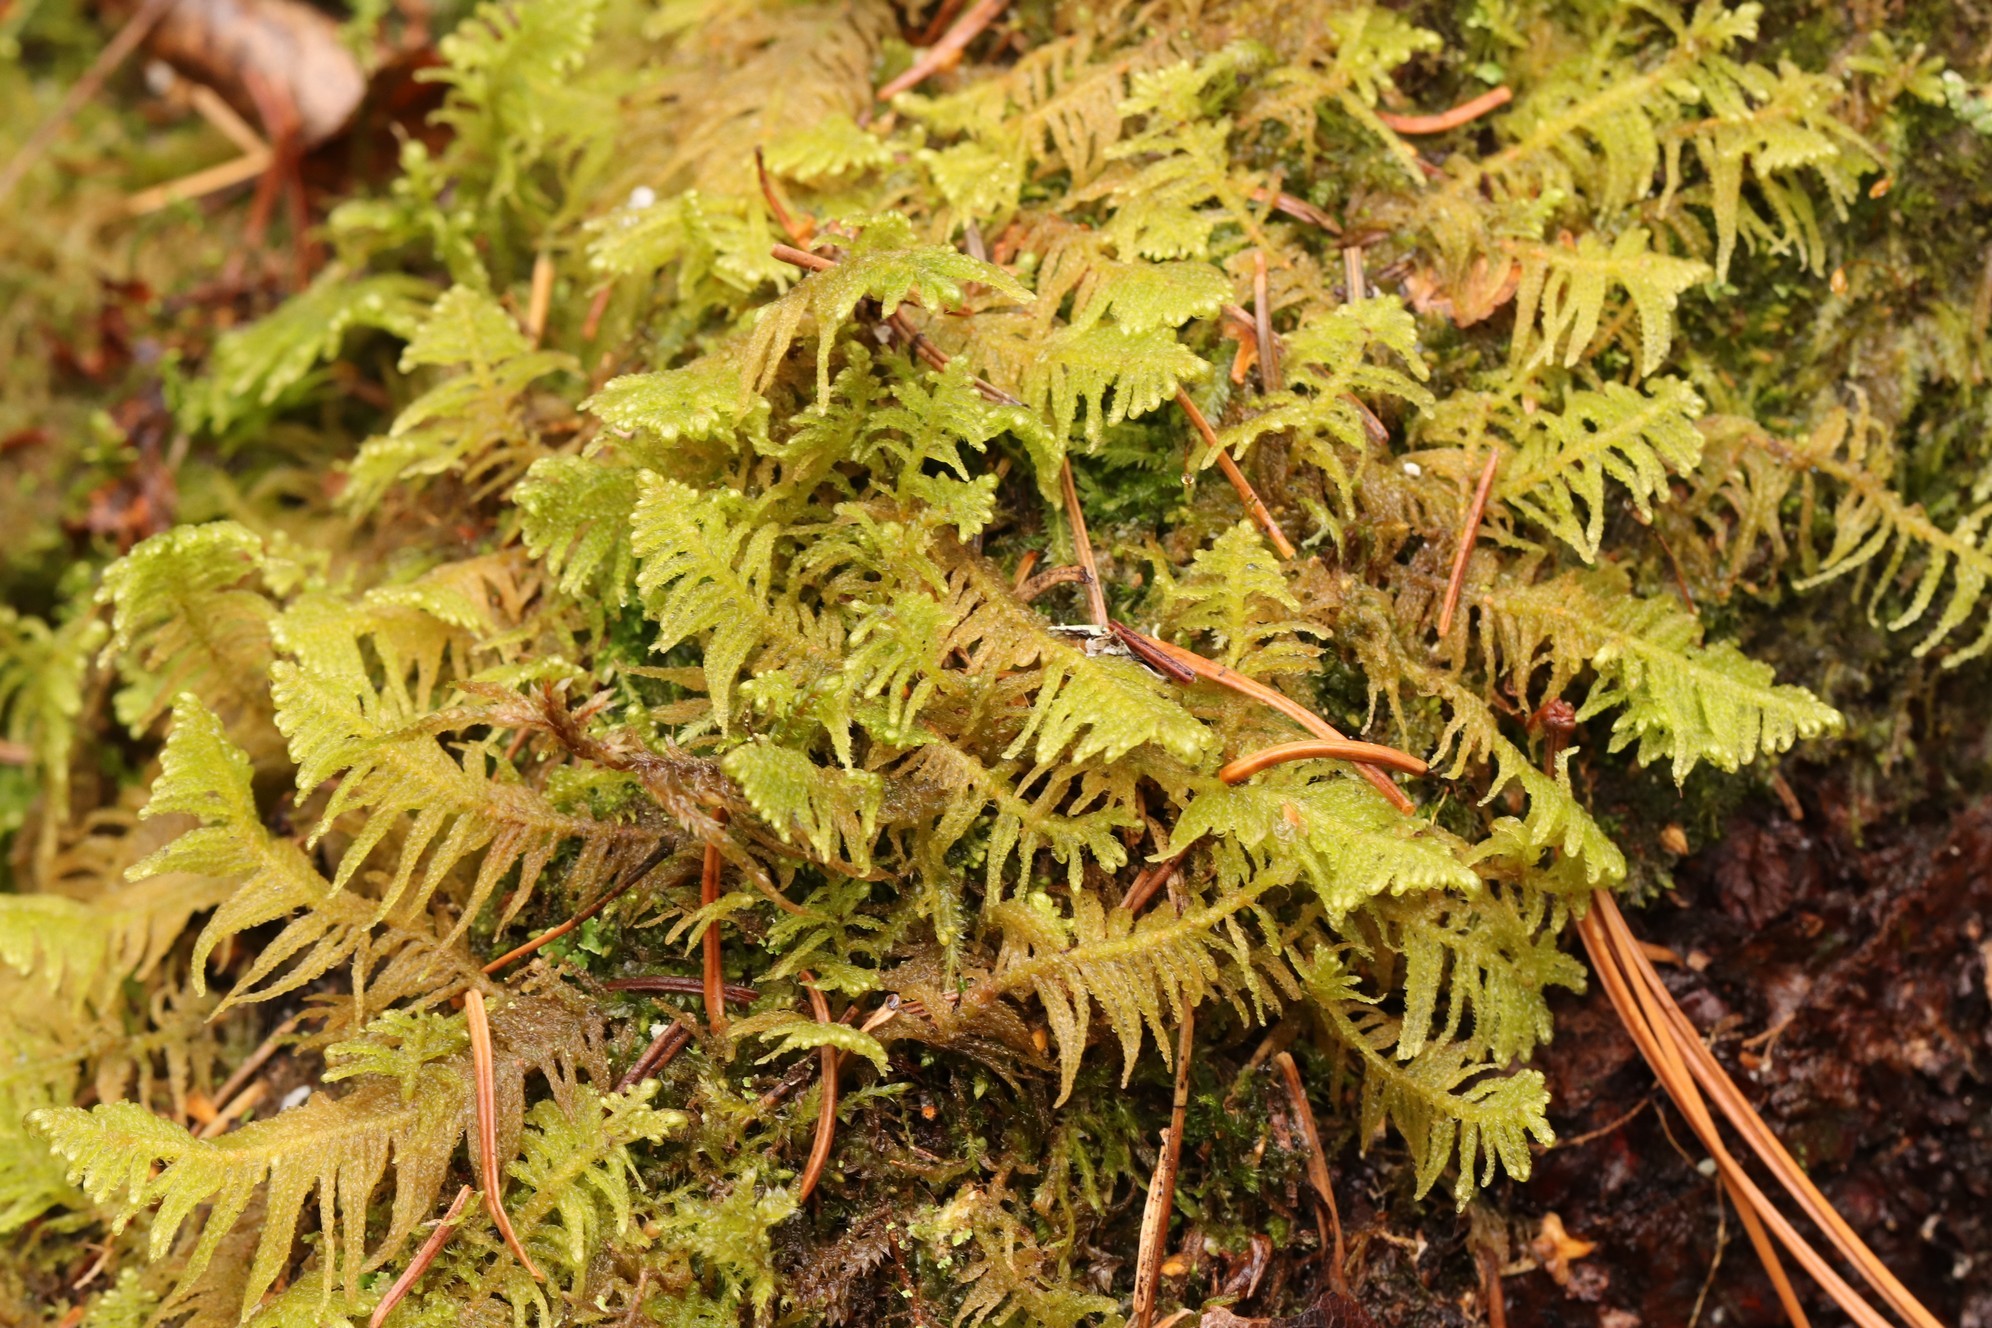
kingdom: Plantae
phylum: Bryophyta
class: Bryopsida
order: Hypnales
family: Pylaisiaceae
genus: Ptilium
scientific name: Ptilium crista-castrensis
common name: Knight's plume moss
